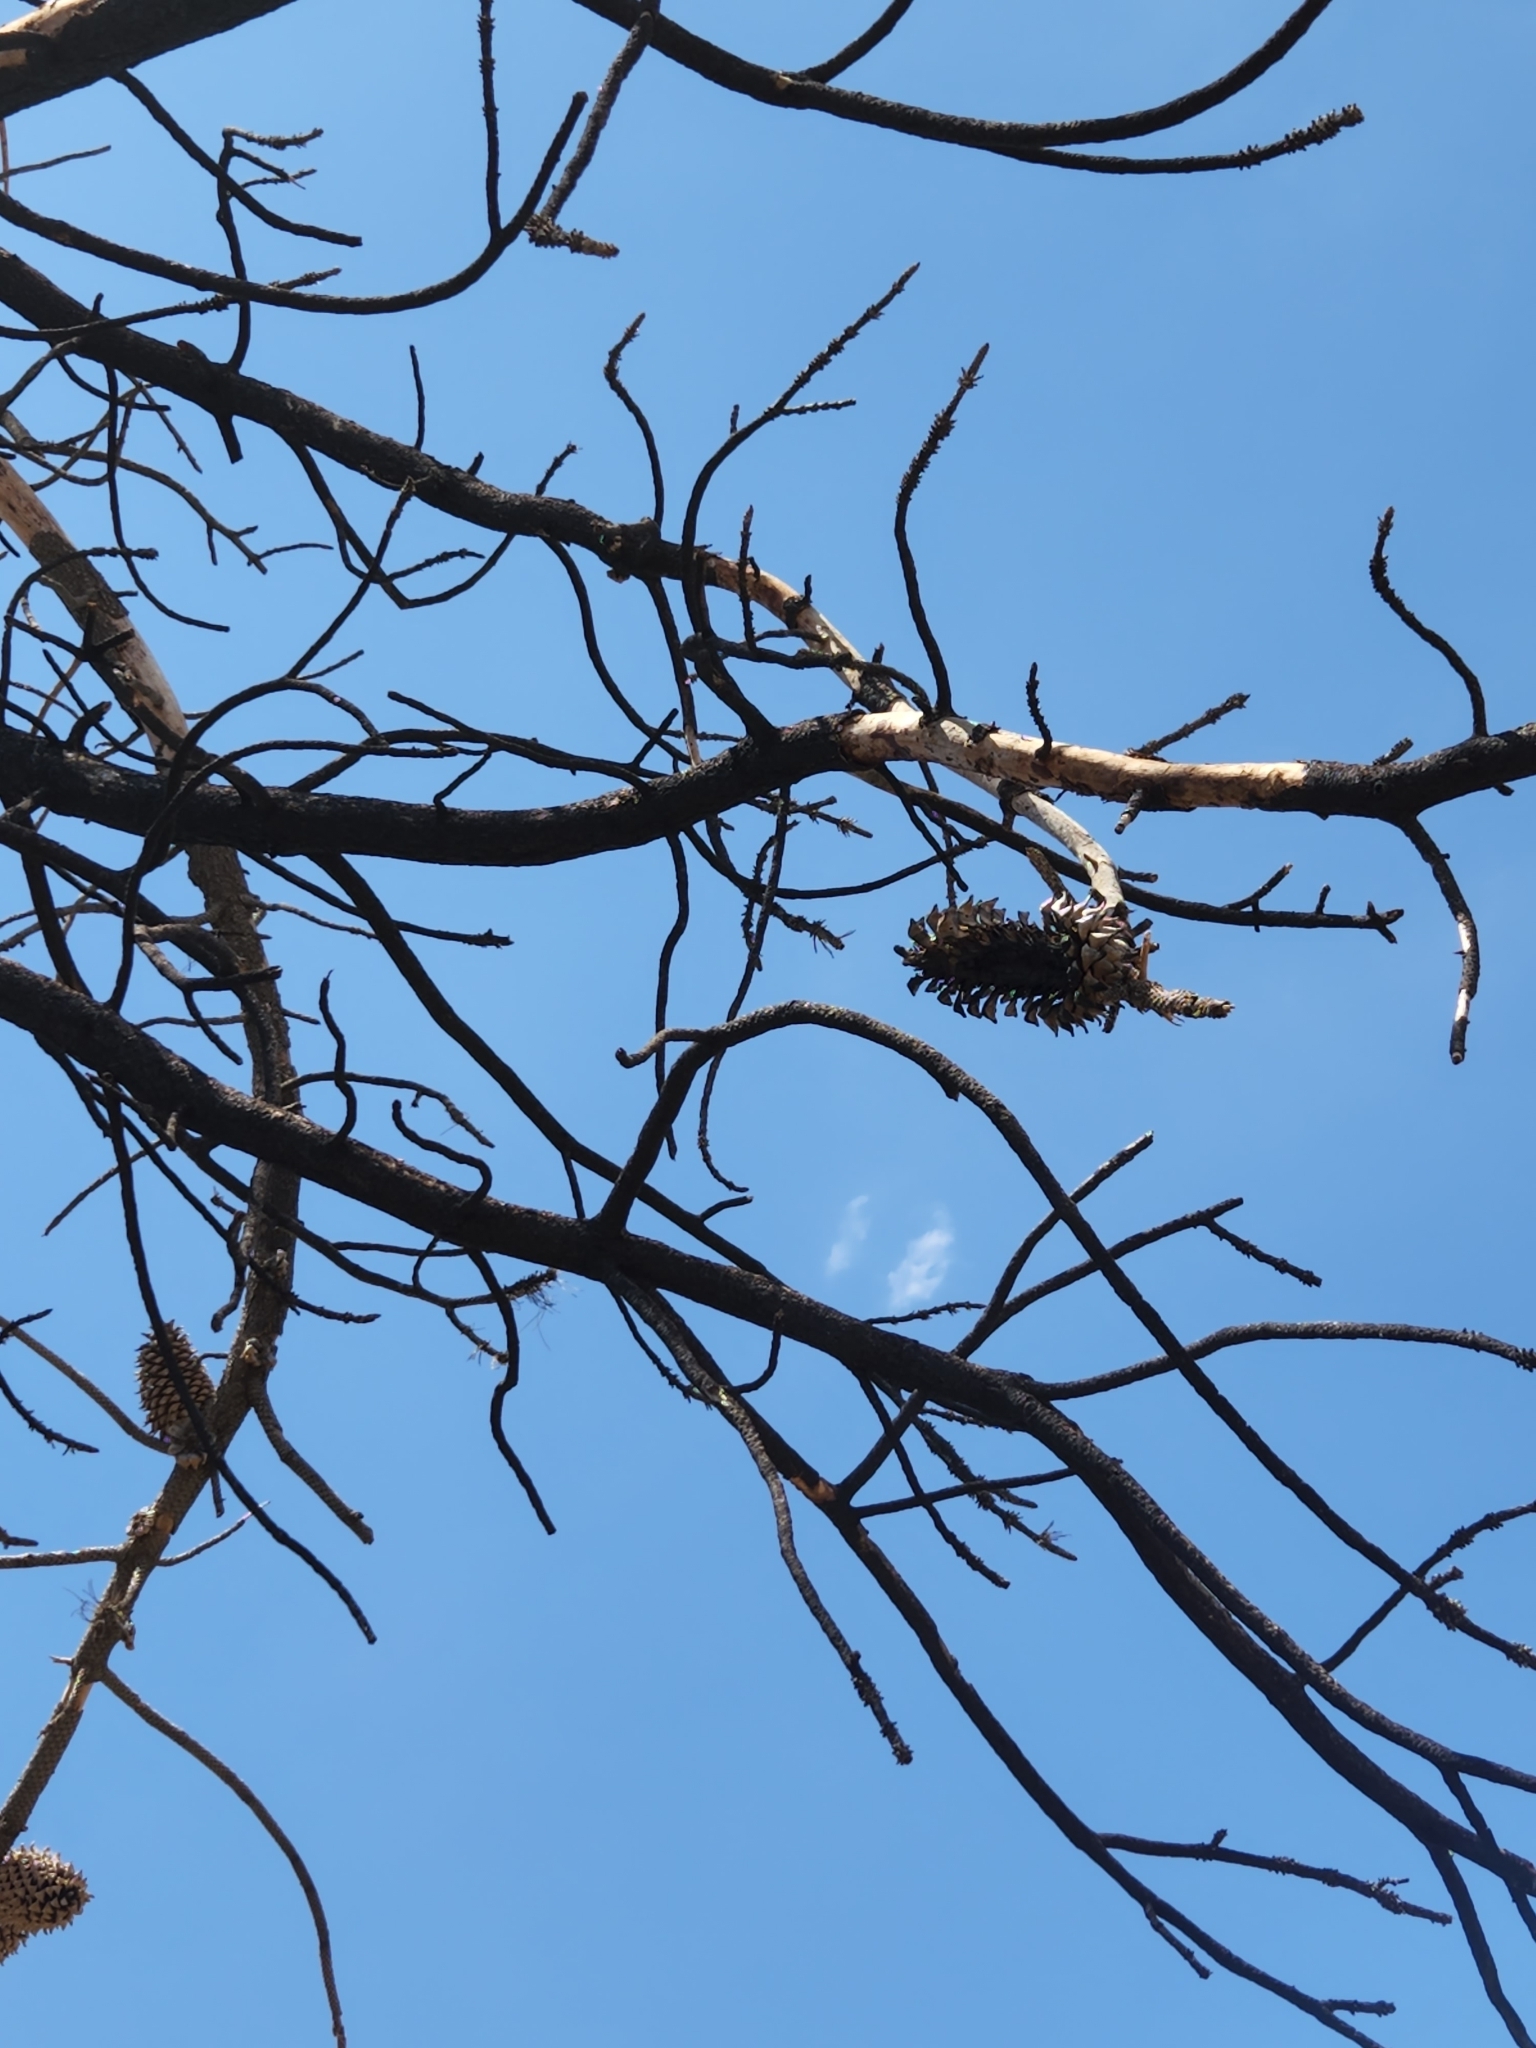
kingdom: Plantae
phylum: Tracheophyta
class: Pinopsida
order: Pinales
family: Pinaceae
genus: Pinus
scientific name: Pinus coulteri
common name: Coulter pine
